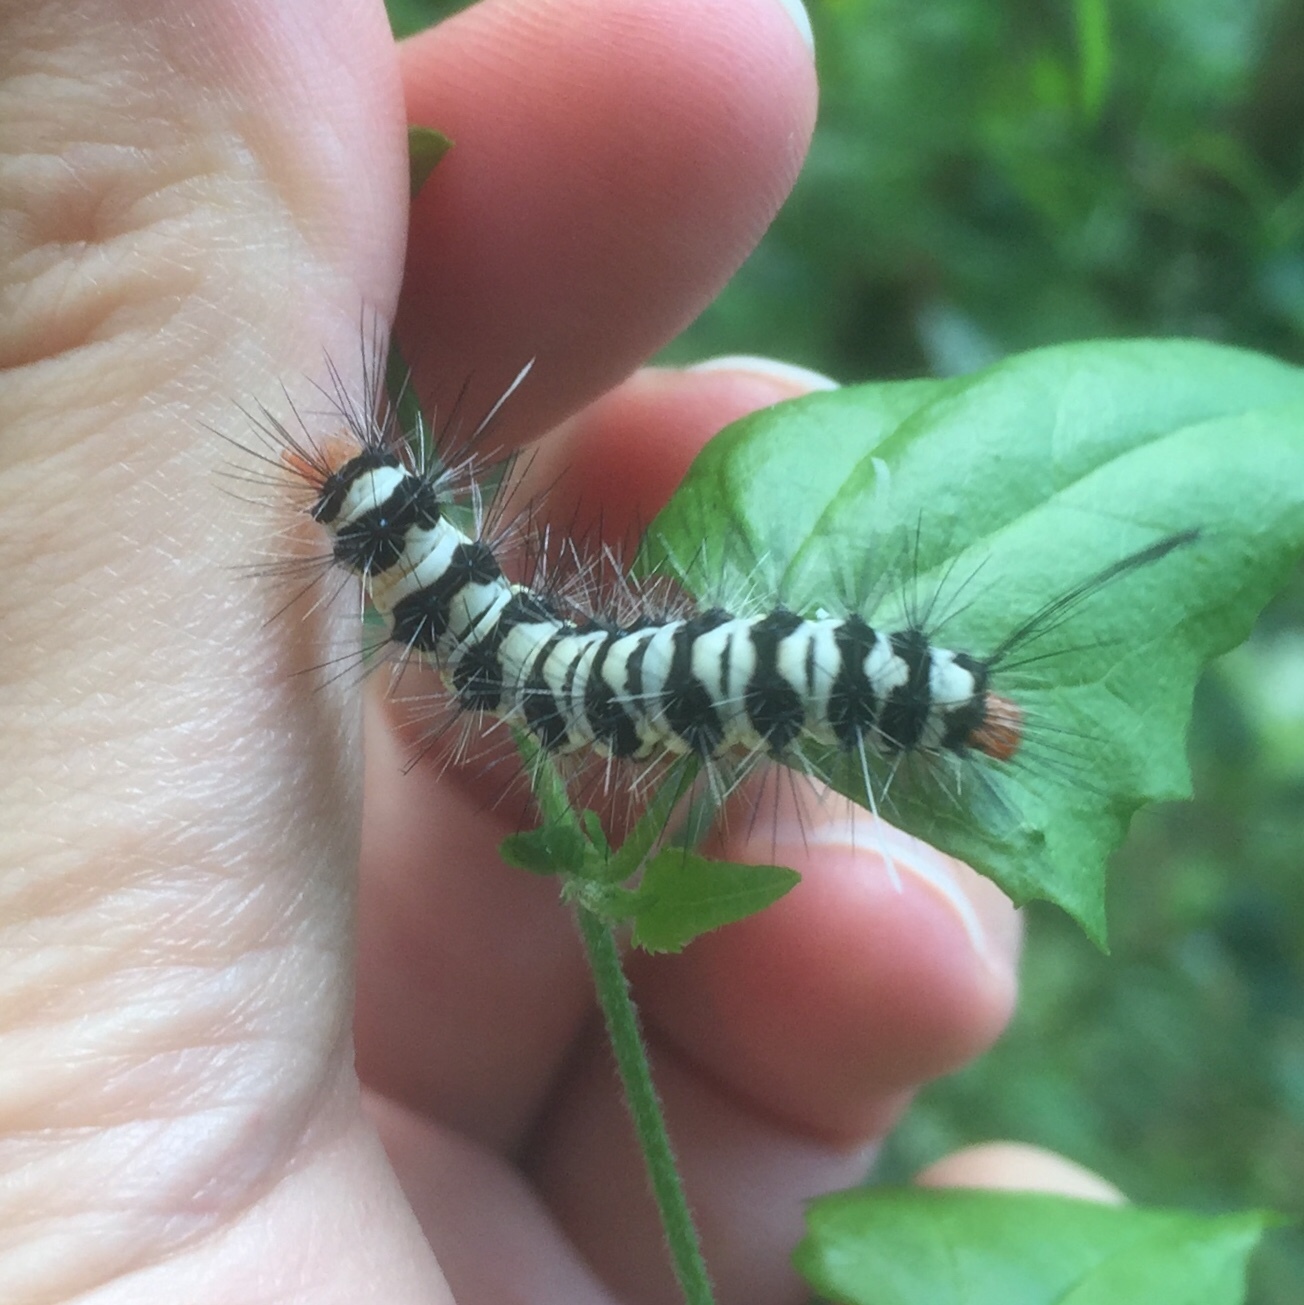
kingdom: Animalia
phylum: Arthropoda
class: Insecta
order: Lepidoptera
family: Erebidae
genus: Nyctemera
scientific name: Nyctemera
